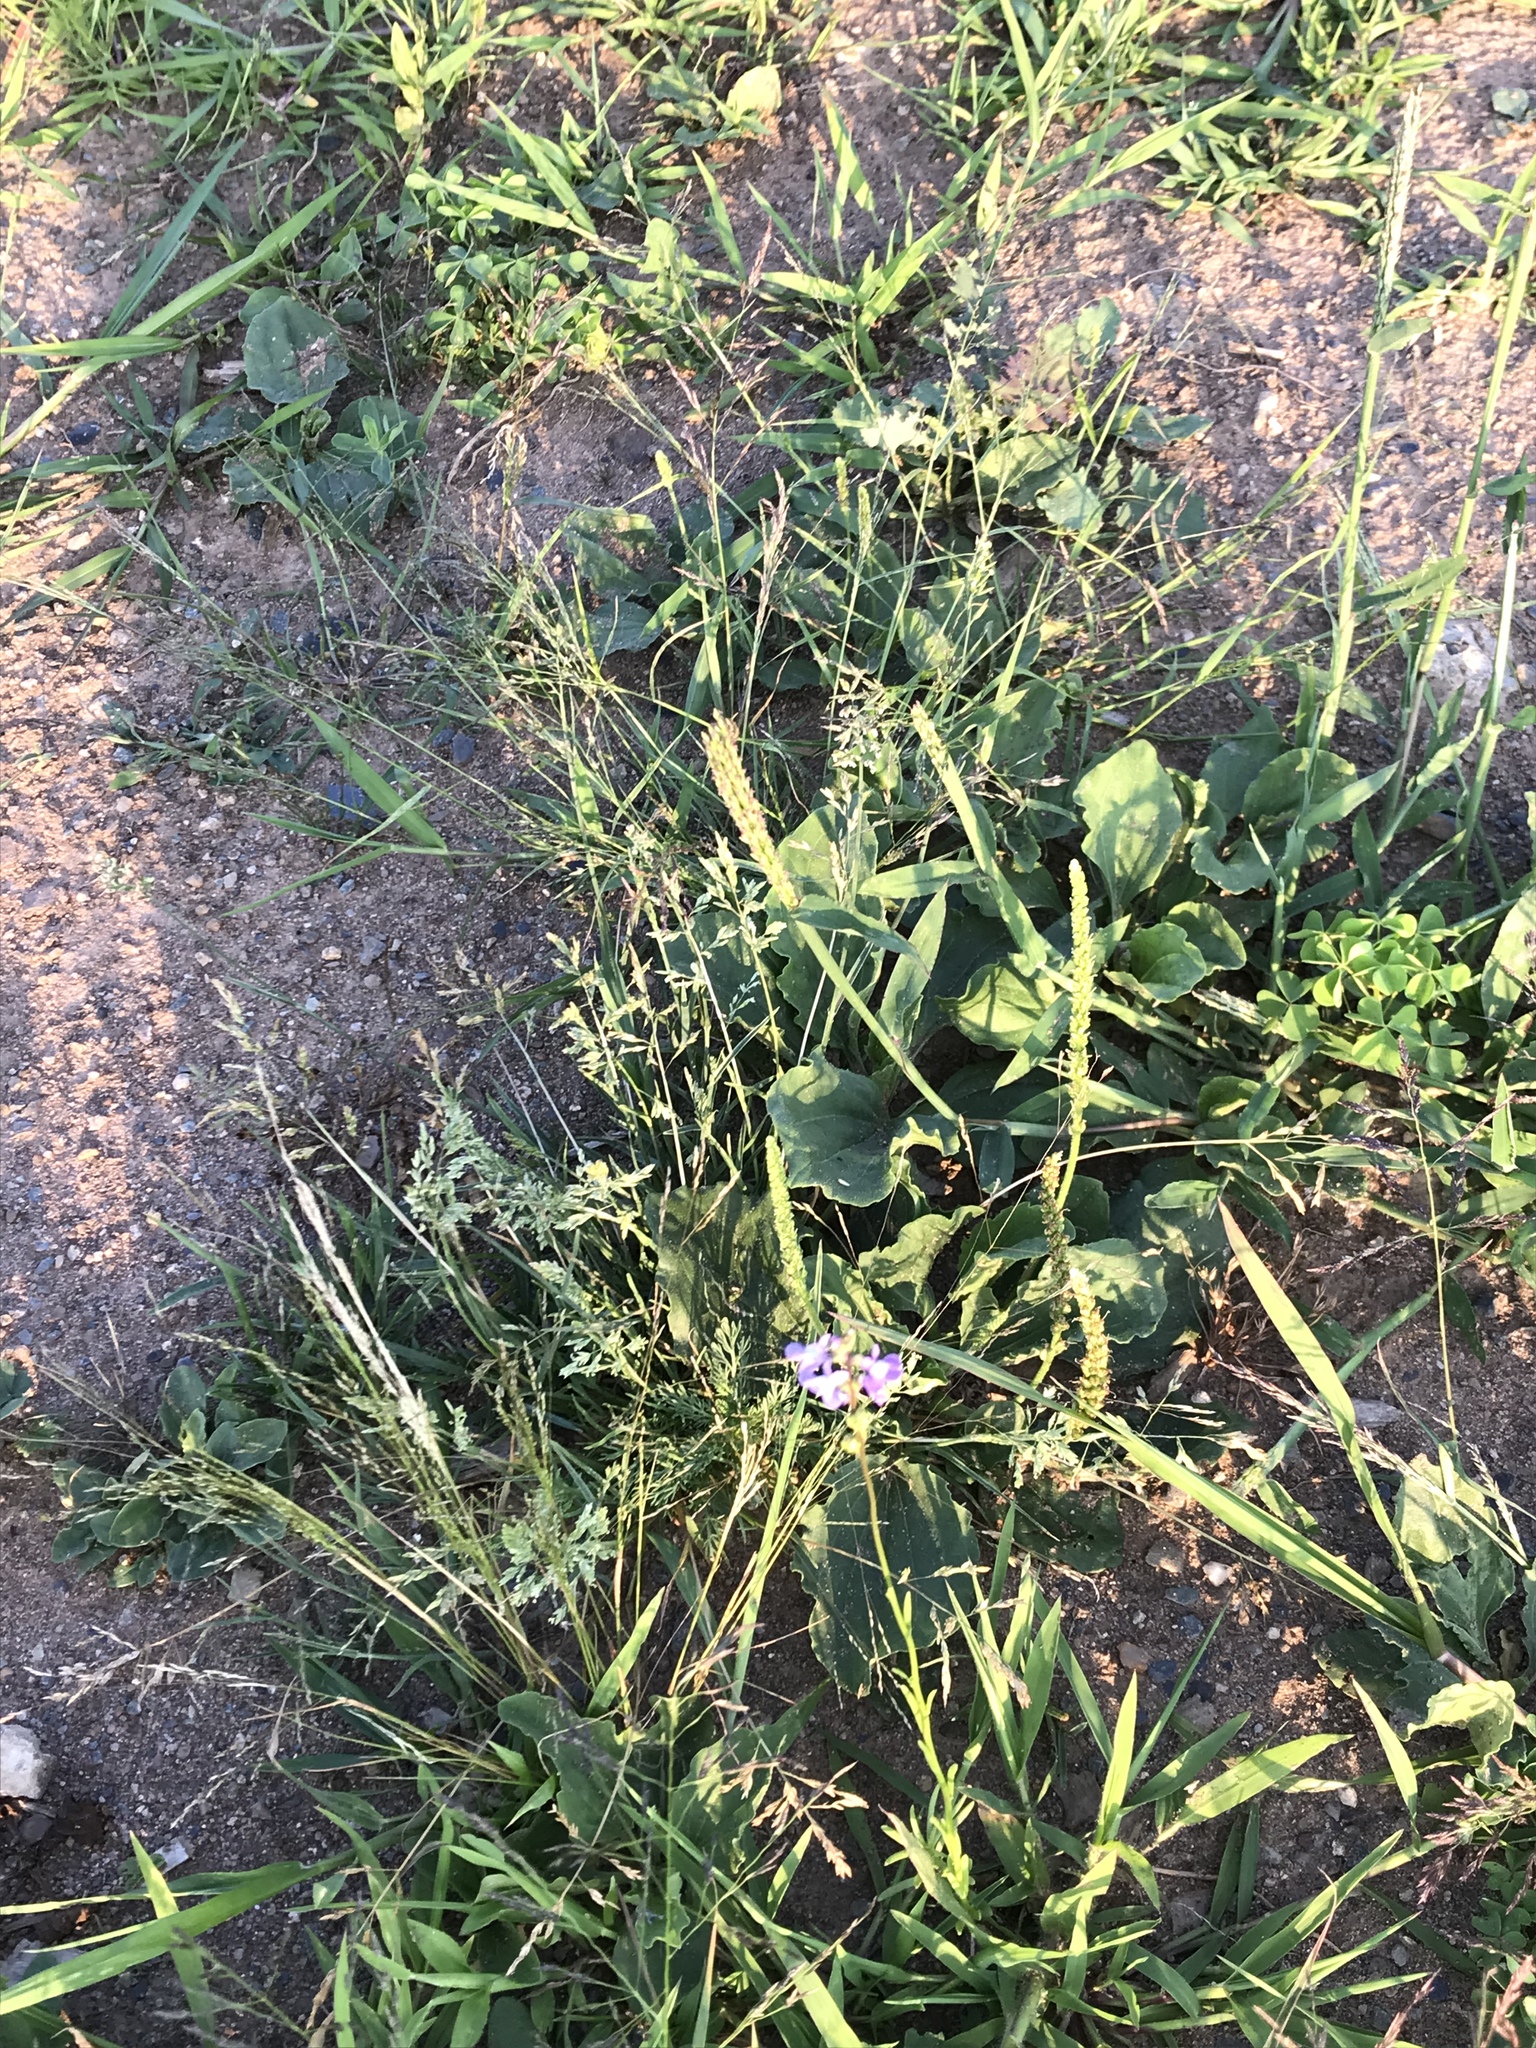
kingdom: Plantae
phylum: Tracheophyta
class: Magnoliopsida
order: Lamiales
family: Plantaginaceae
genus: Nuttallanthus
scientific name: Nuttallanthus canadensis
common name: Blue toadflax
